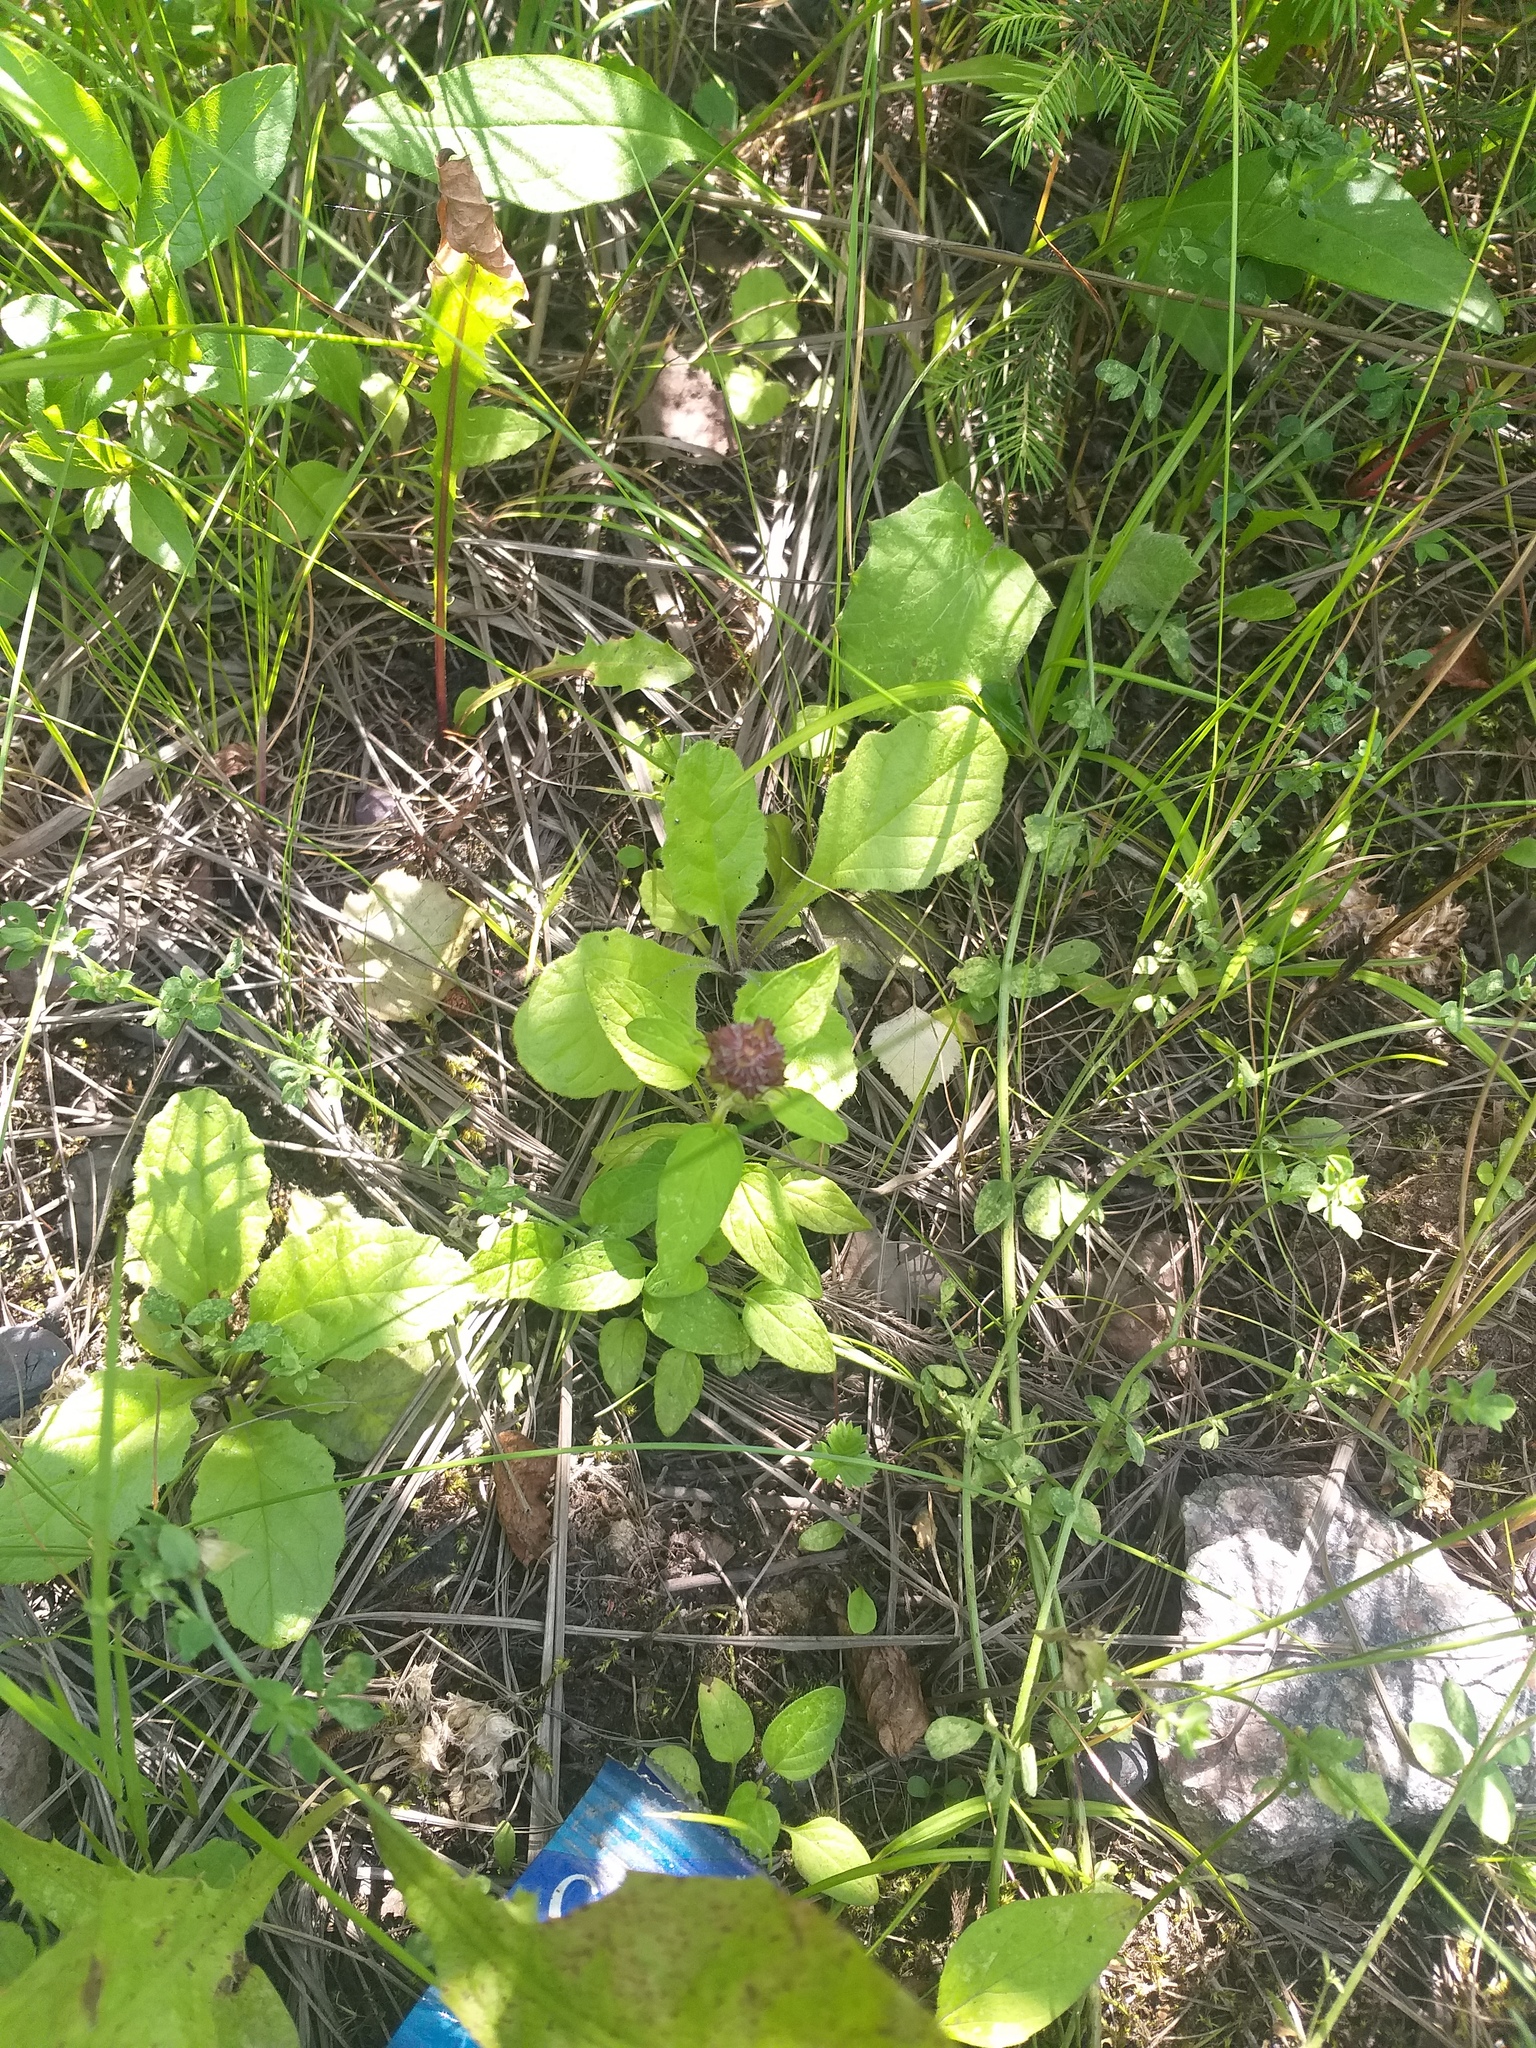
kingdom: Plantae
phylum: Tracheophyta
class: Magnoliopsida
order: Lamiales
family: Lamiaceae
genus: Ajuga
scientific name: Ajuga reptans
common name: Bugle
